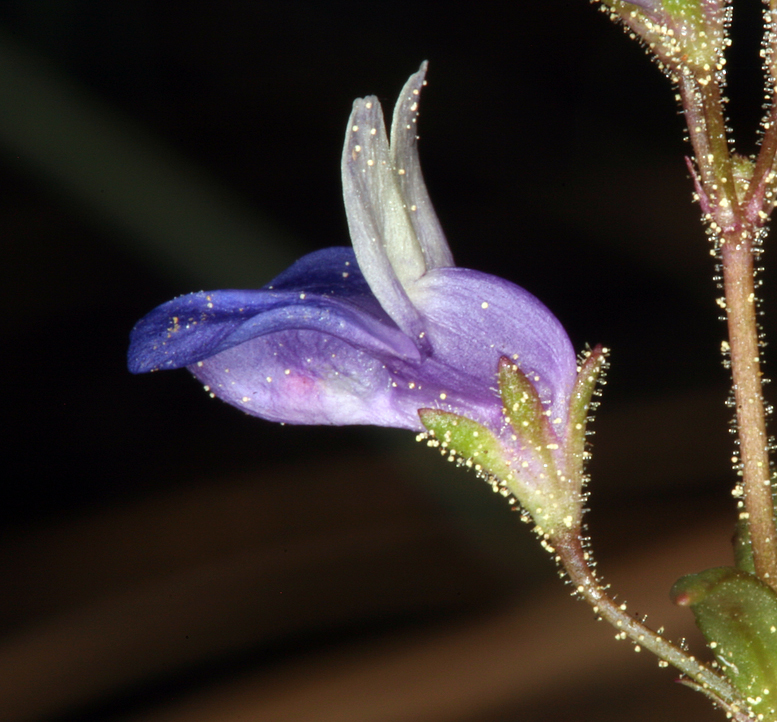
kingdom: Plantae
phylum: Tracheophyta
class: Magnoliopsida
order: Lamiales
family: Plantaginaceae
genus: Collinsia
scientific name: Collinsia torreyi
